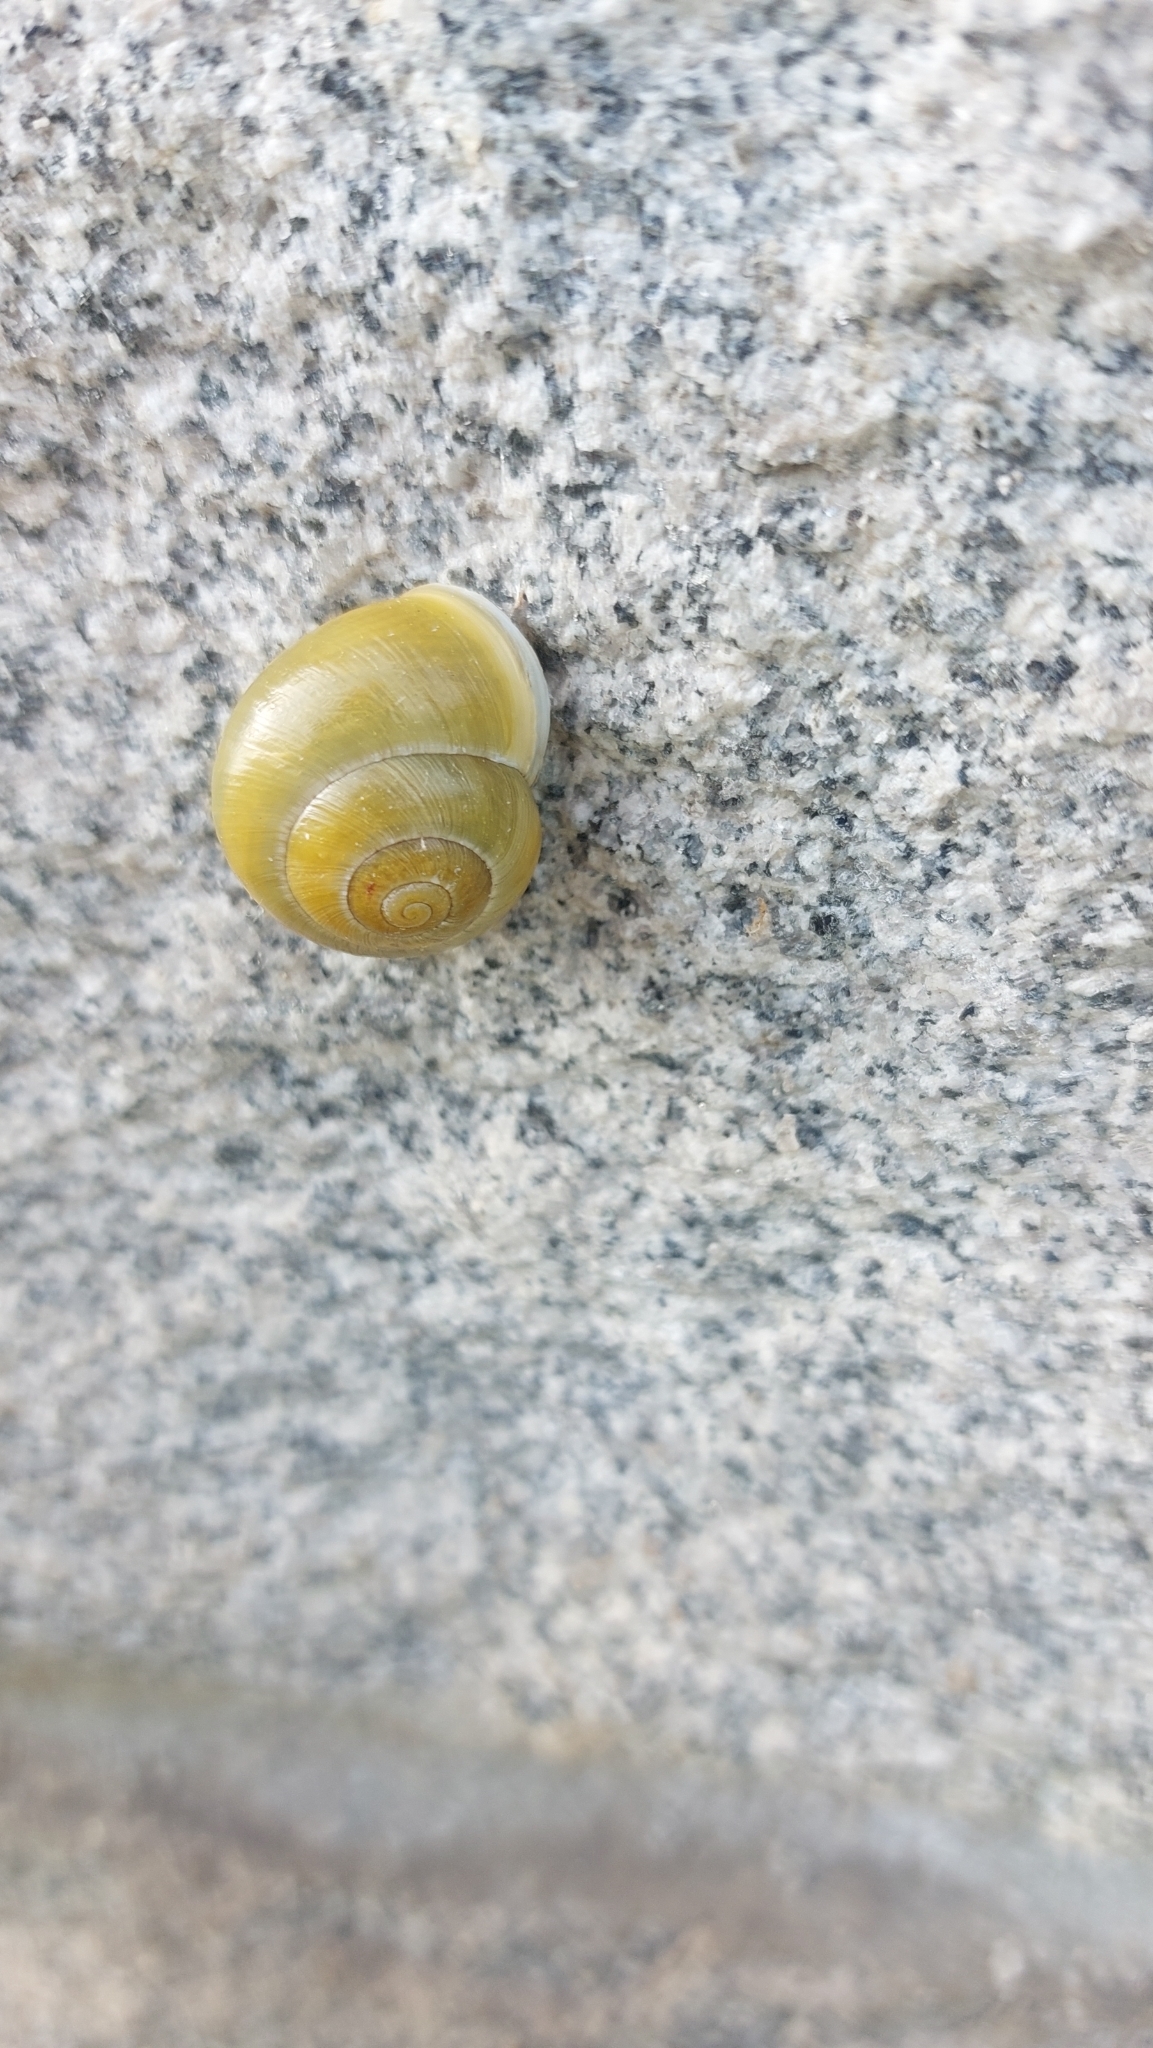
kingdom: Animalia
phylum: Mollusca
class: Gastropoda
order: Stylommatophora
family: Helicidae
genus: Cepaea
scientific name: Cepaea hortensis
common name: White-lip gardensnail
